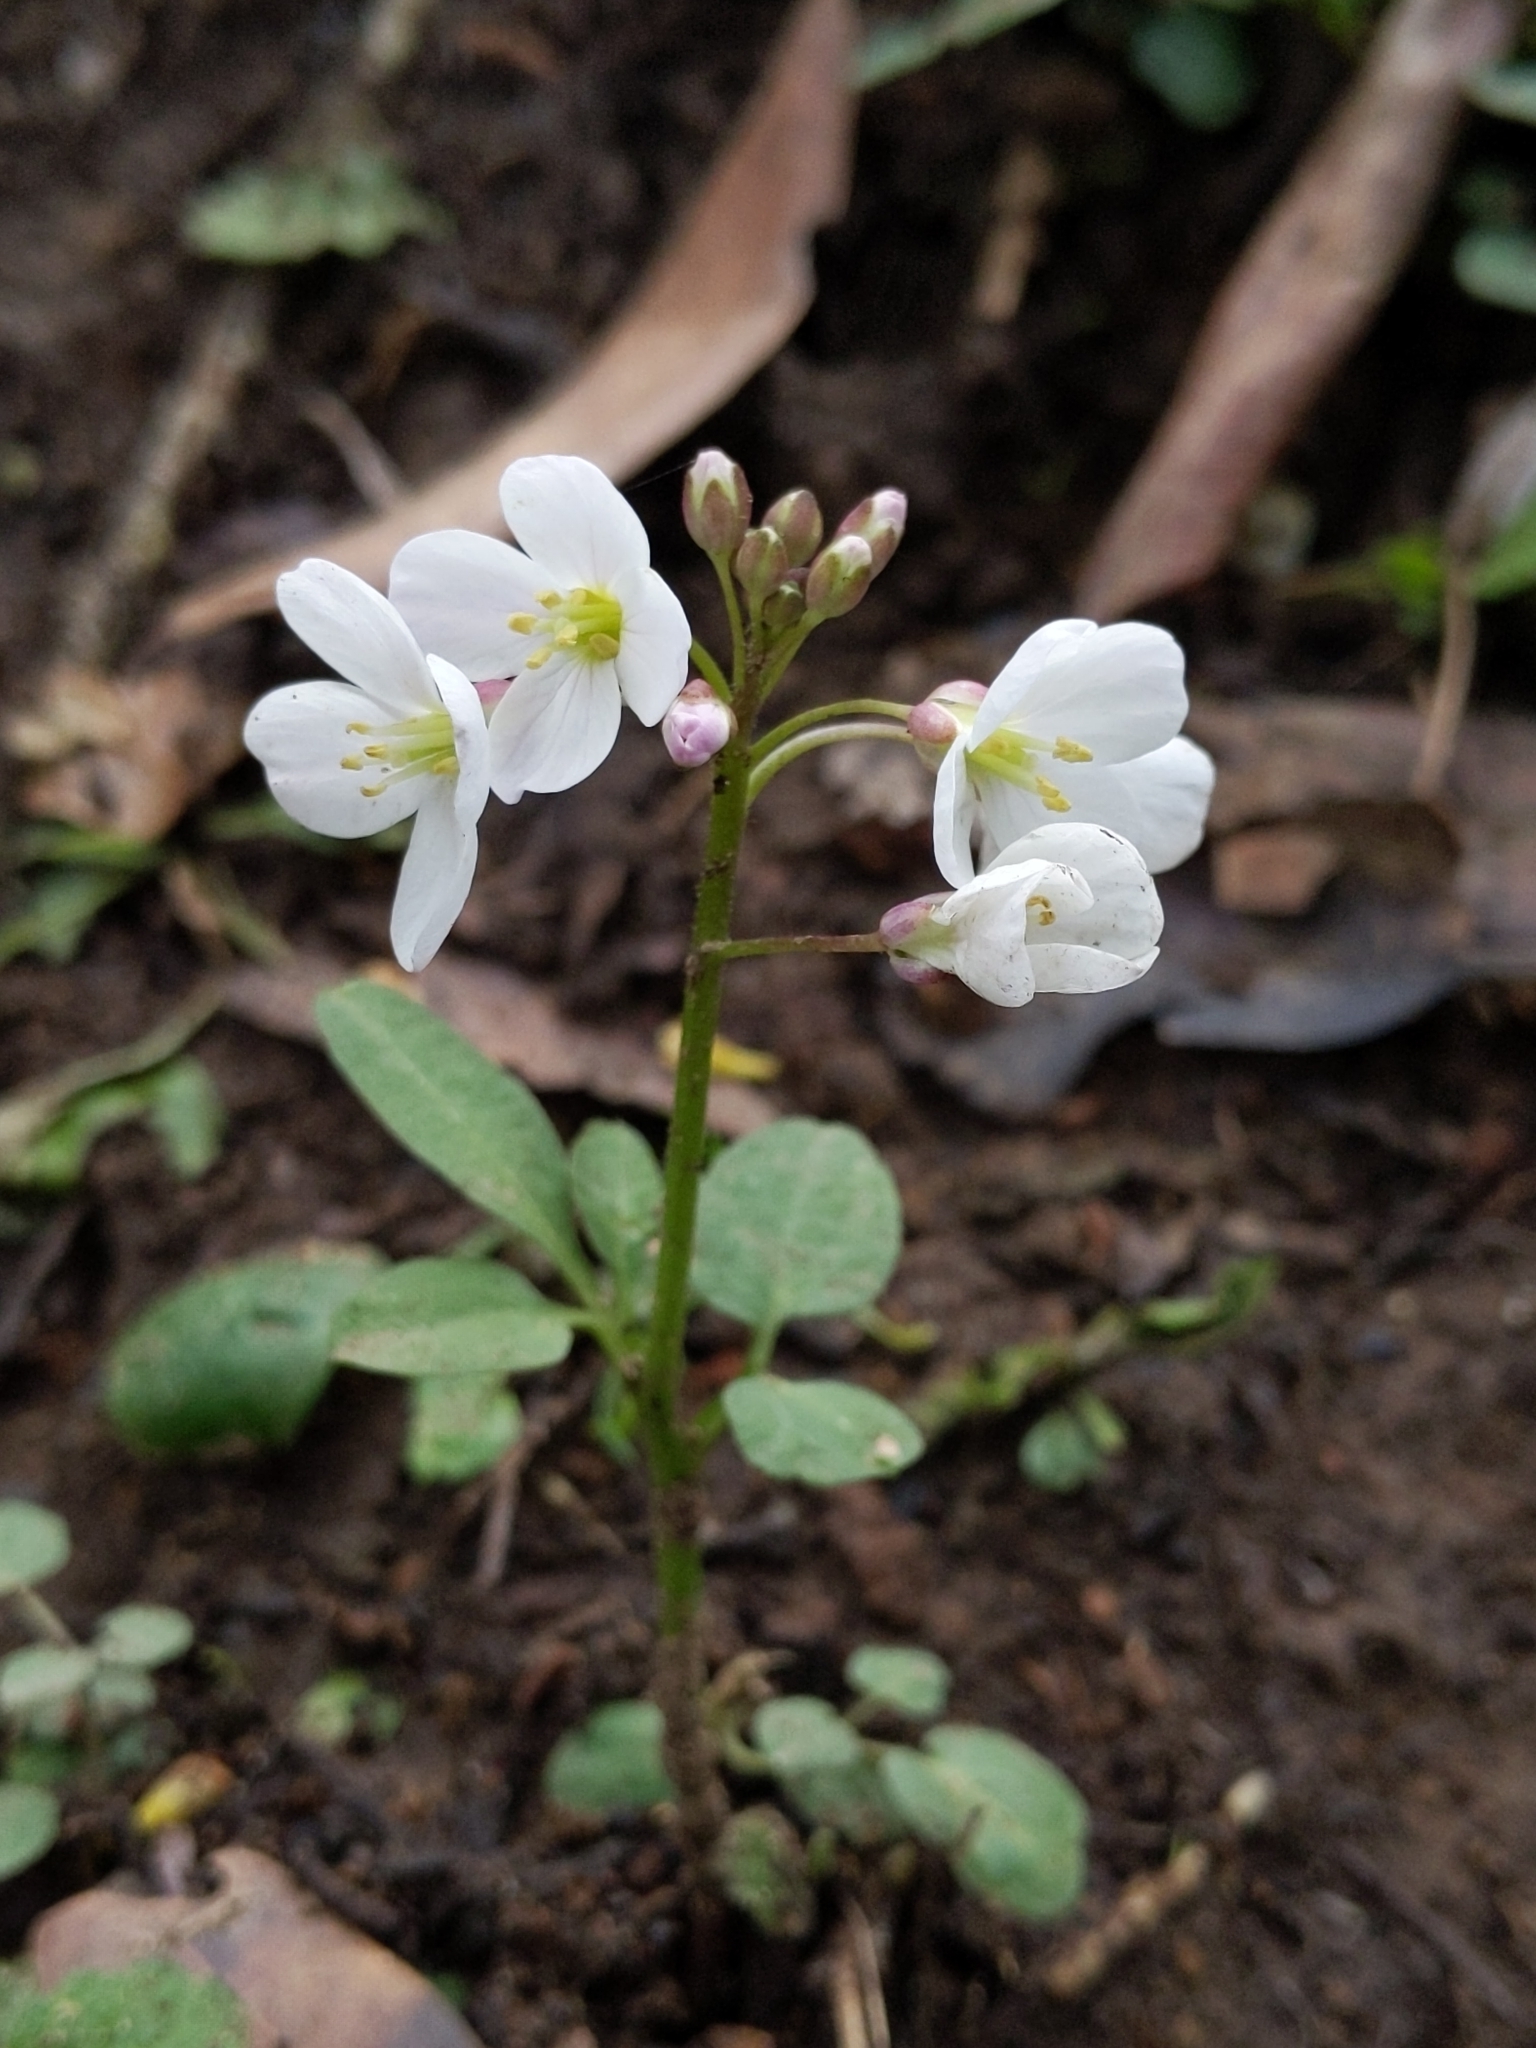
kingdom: Plantae
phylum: Tracheophyta
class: Magnoliopsida
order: Brassicales
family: Brassicaceae
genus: Cardamine
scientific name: Cardamine californica
